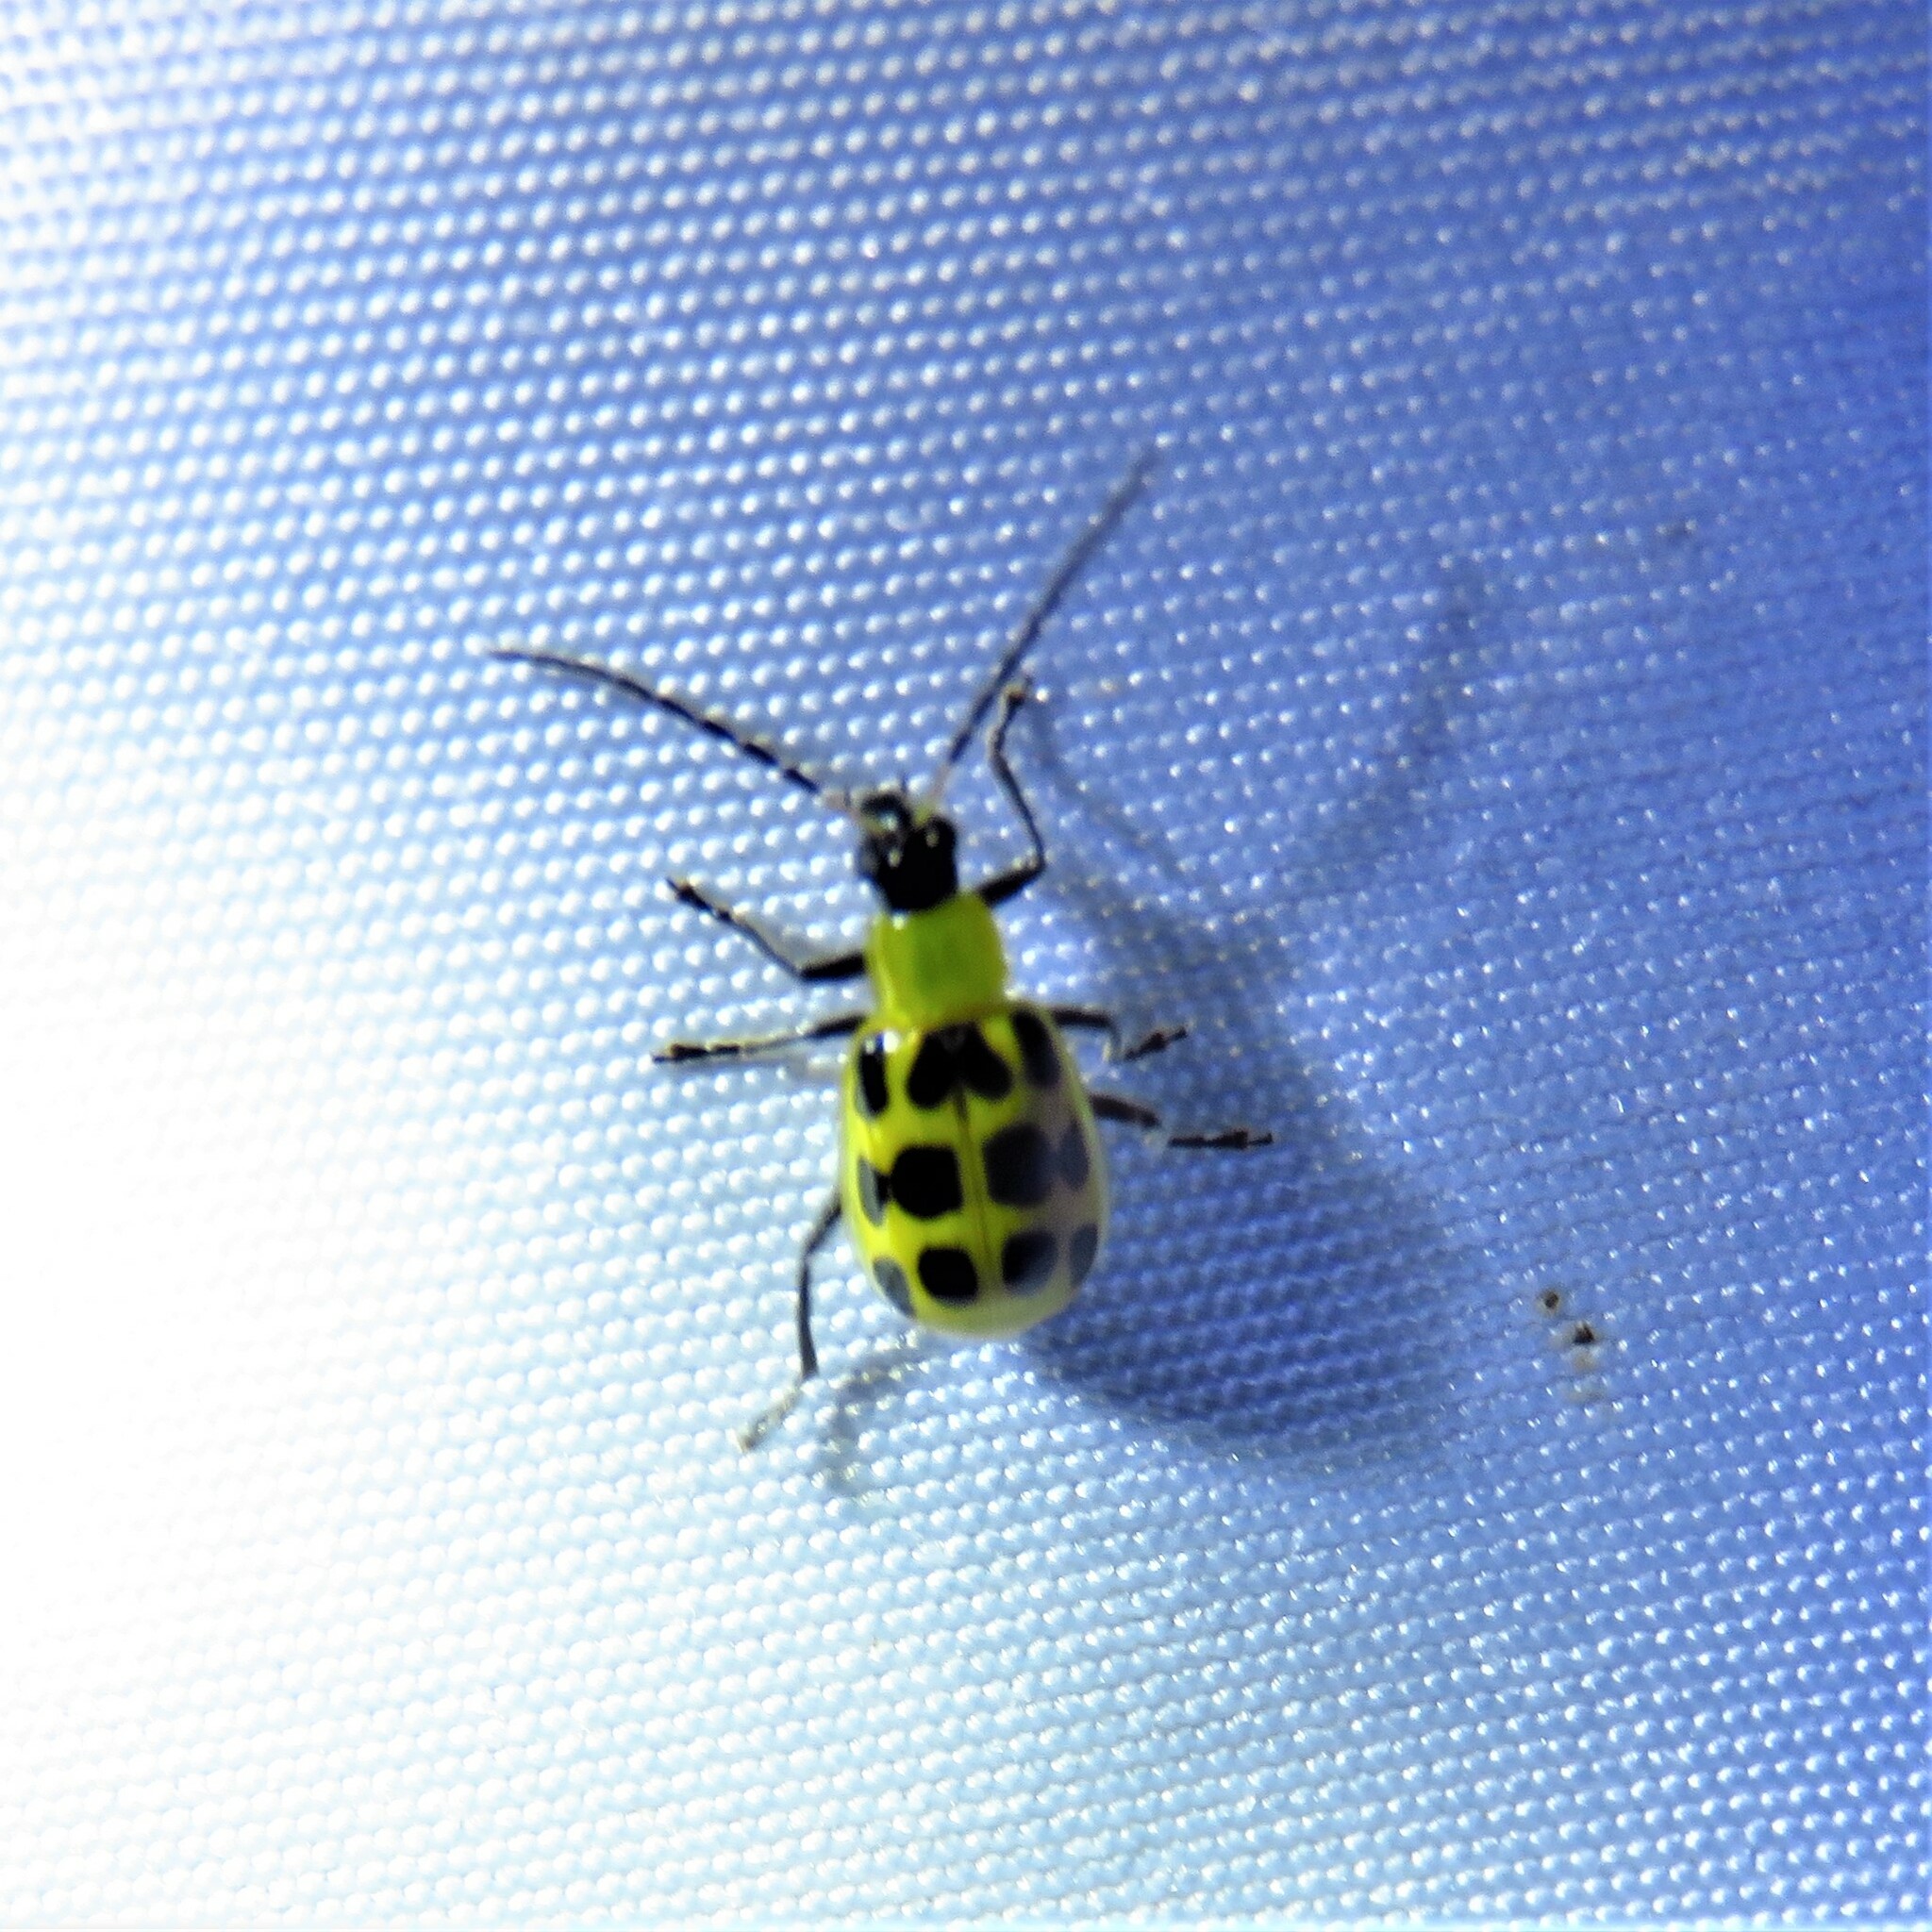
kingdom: Animalia
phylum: Arthropoda
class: Insecta
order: Coleoptera
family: Chrysomelidae
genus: Diabrotica
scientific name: Diabrotica undecimpunctata
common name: Spotted cucumber beetle
